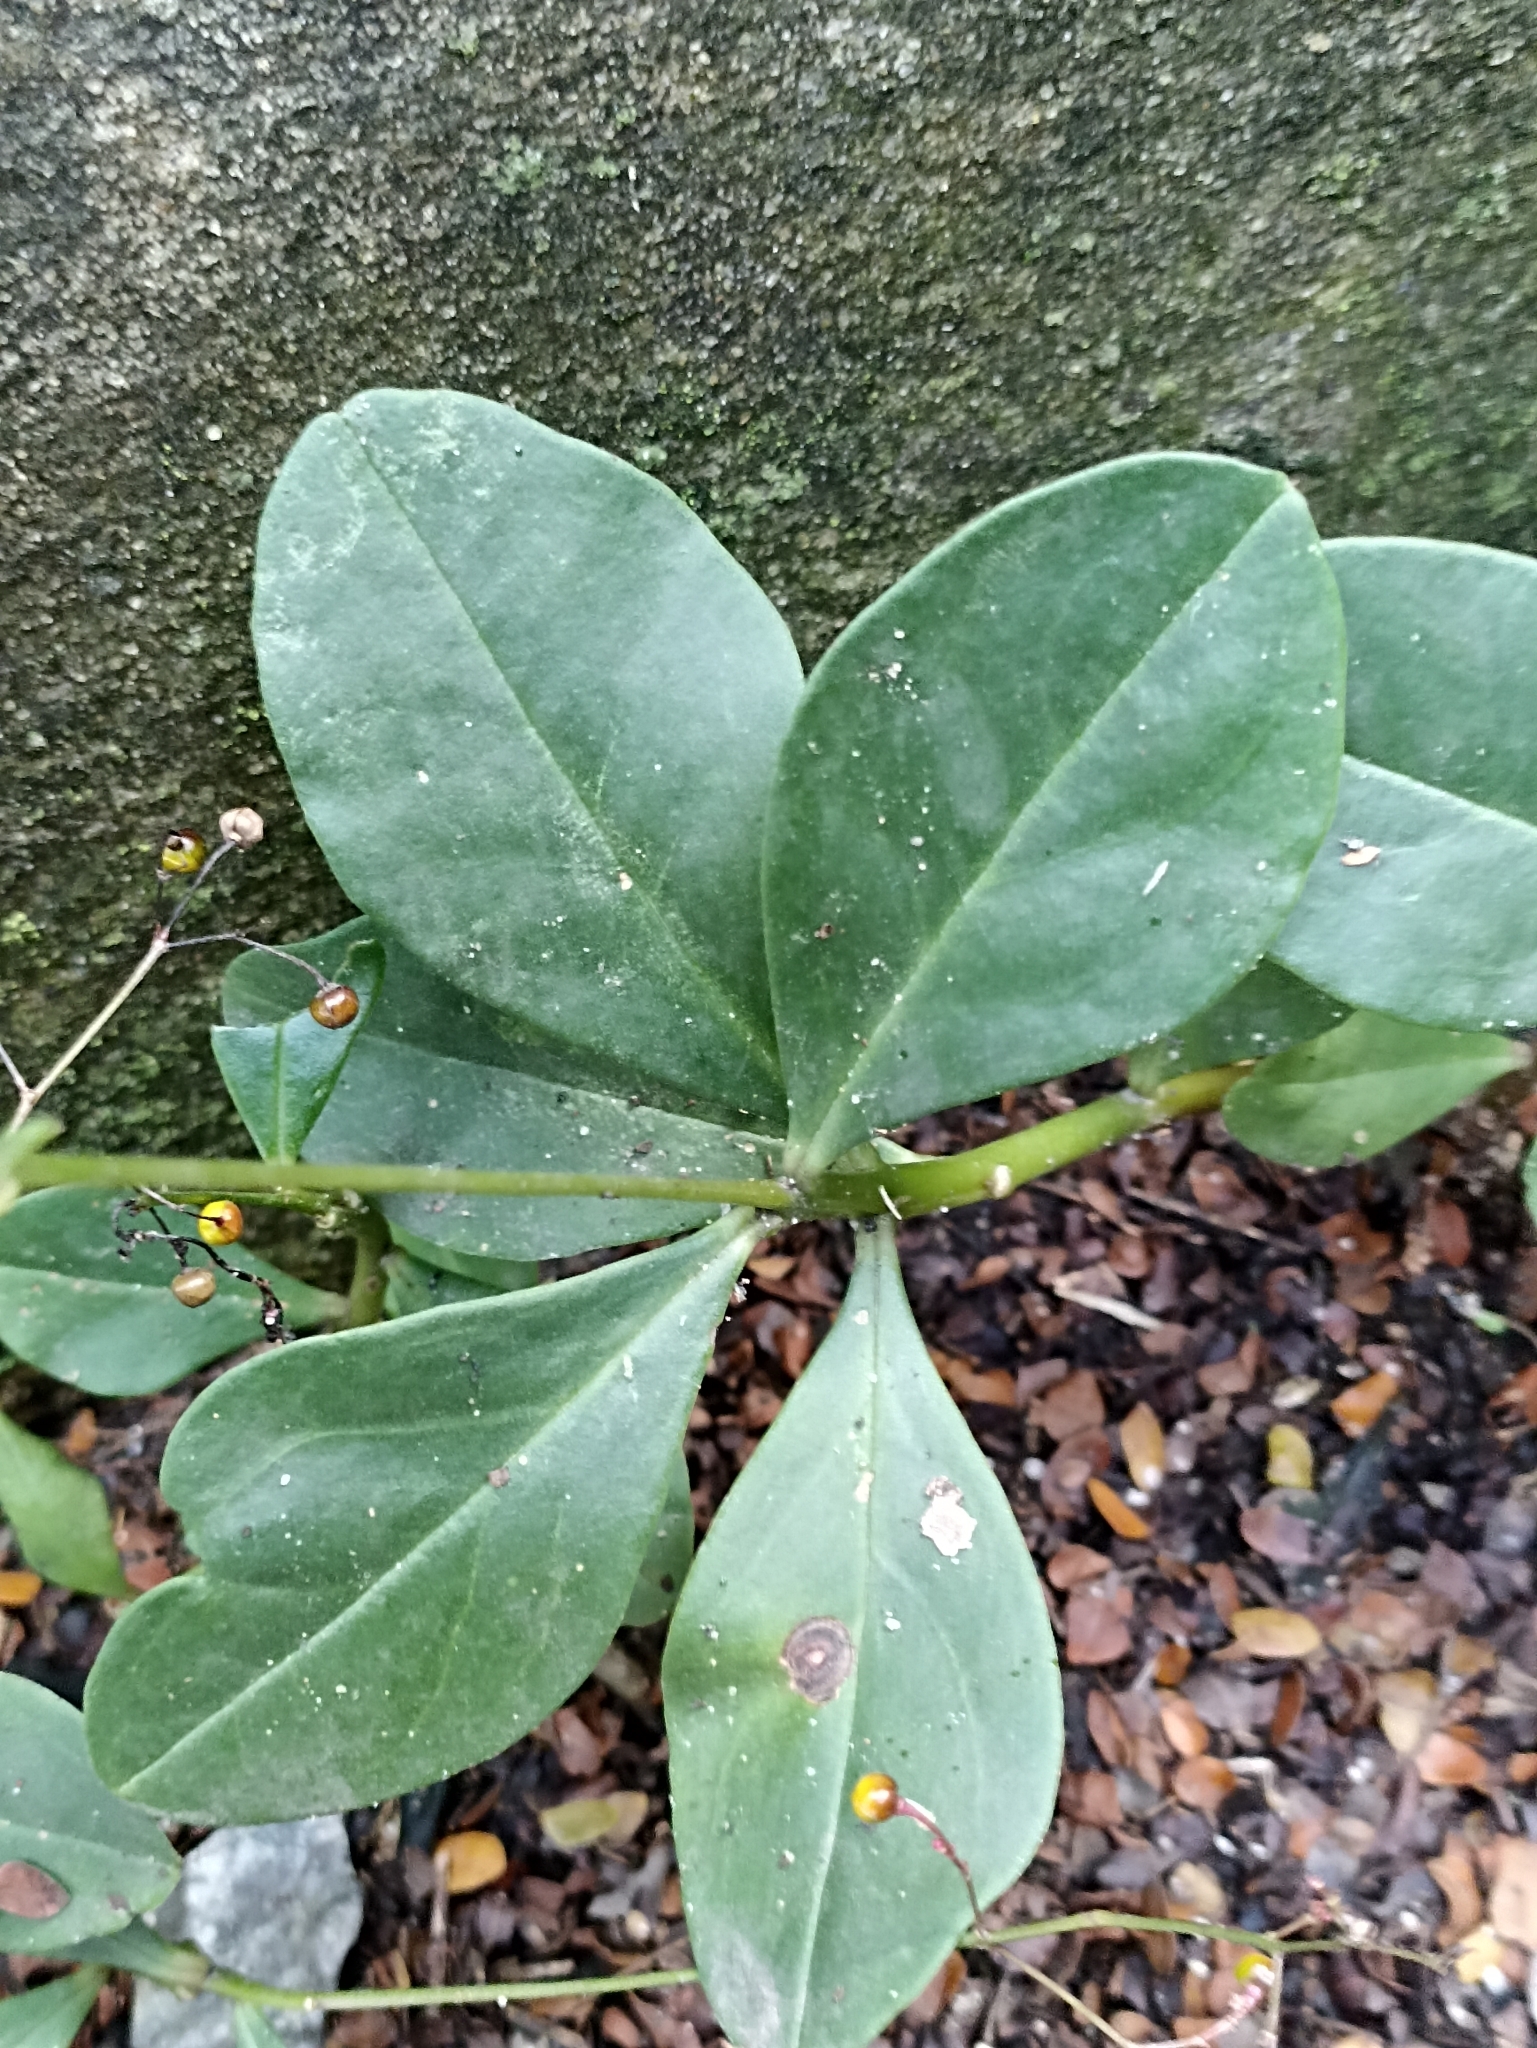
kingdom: Plantae
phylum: Tracheophyta
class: Magnoliopsida
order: Caryophyllales
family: Talinaceae
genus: Talinum
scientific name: Talinum paniculatum
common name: Jewels of opar
